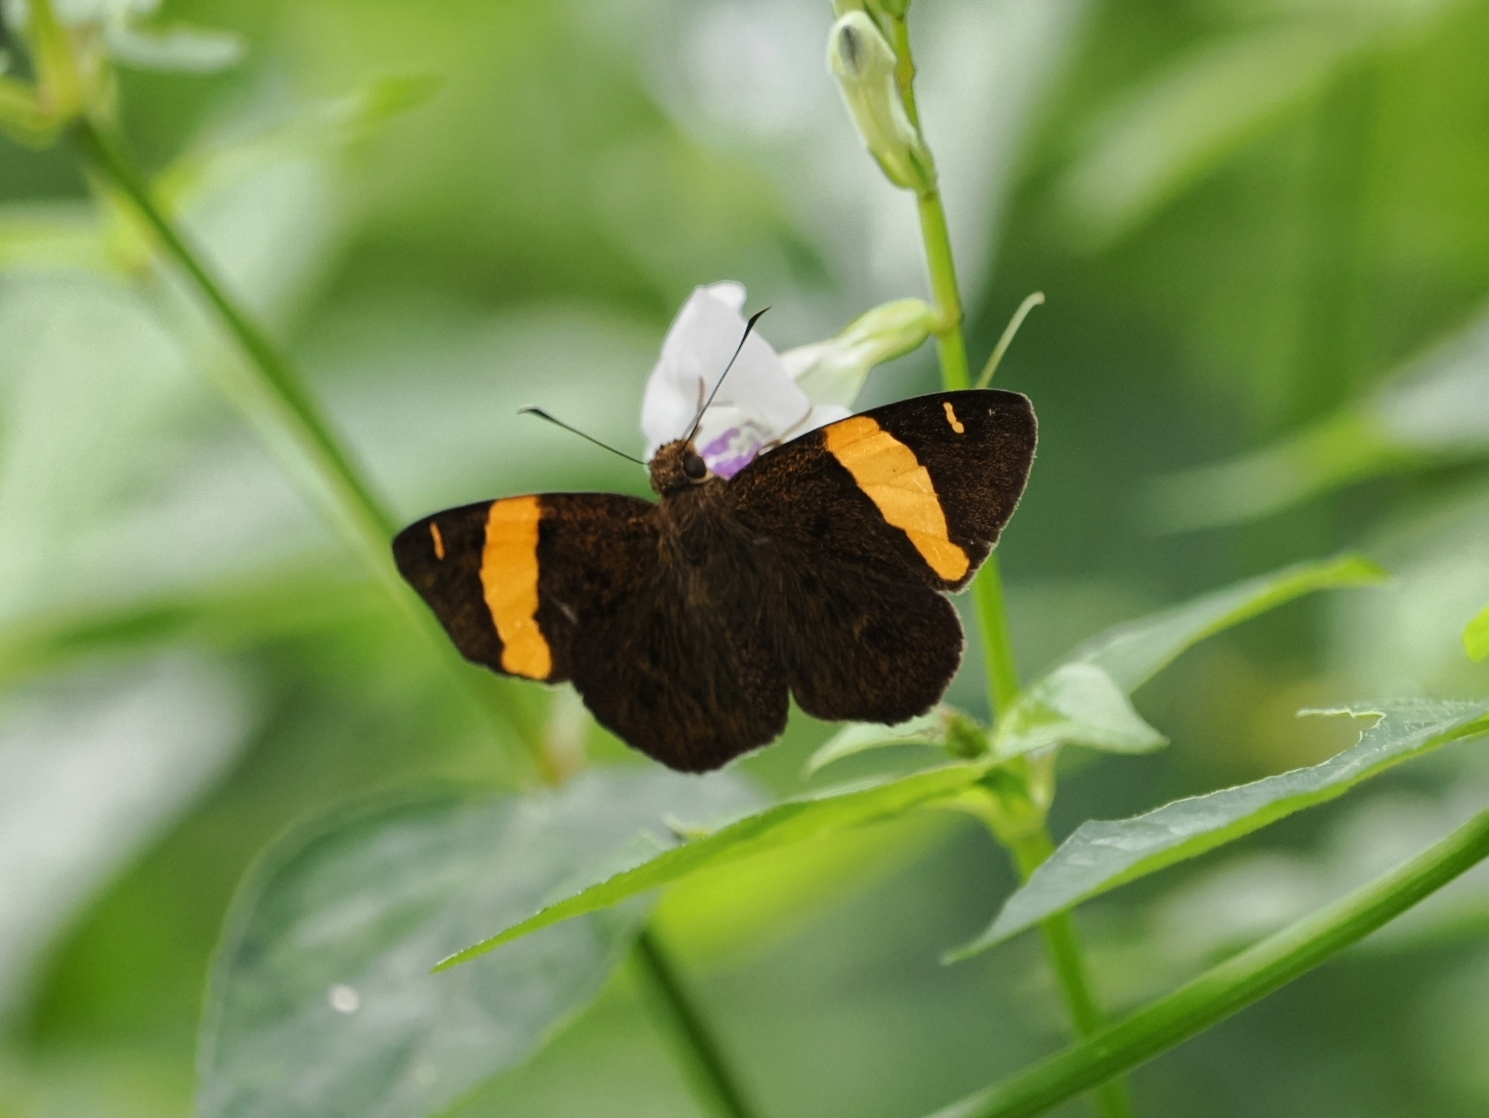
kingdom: Animalia
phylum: Arthropoda
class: Insecta
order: Lepidoptera
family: Hesperiidae
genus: Aurivittia
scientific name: Aurivittia
